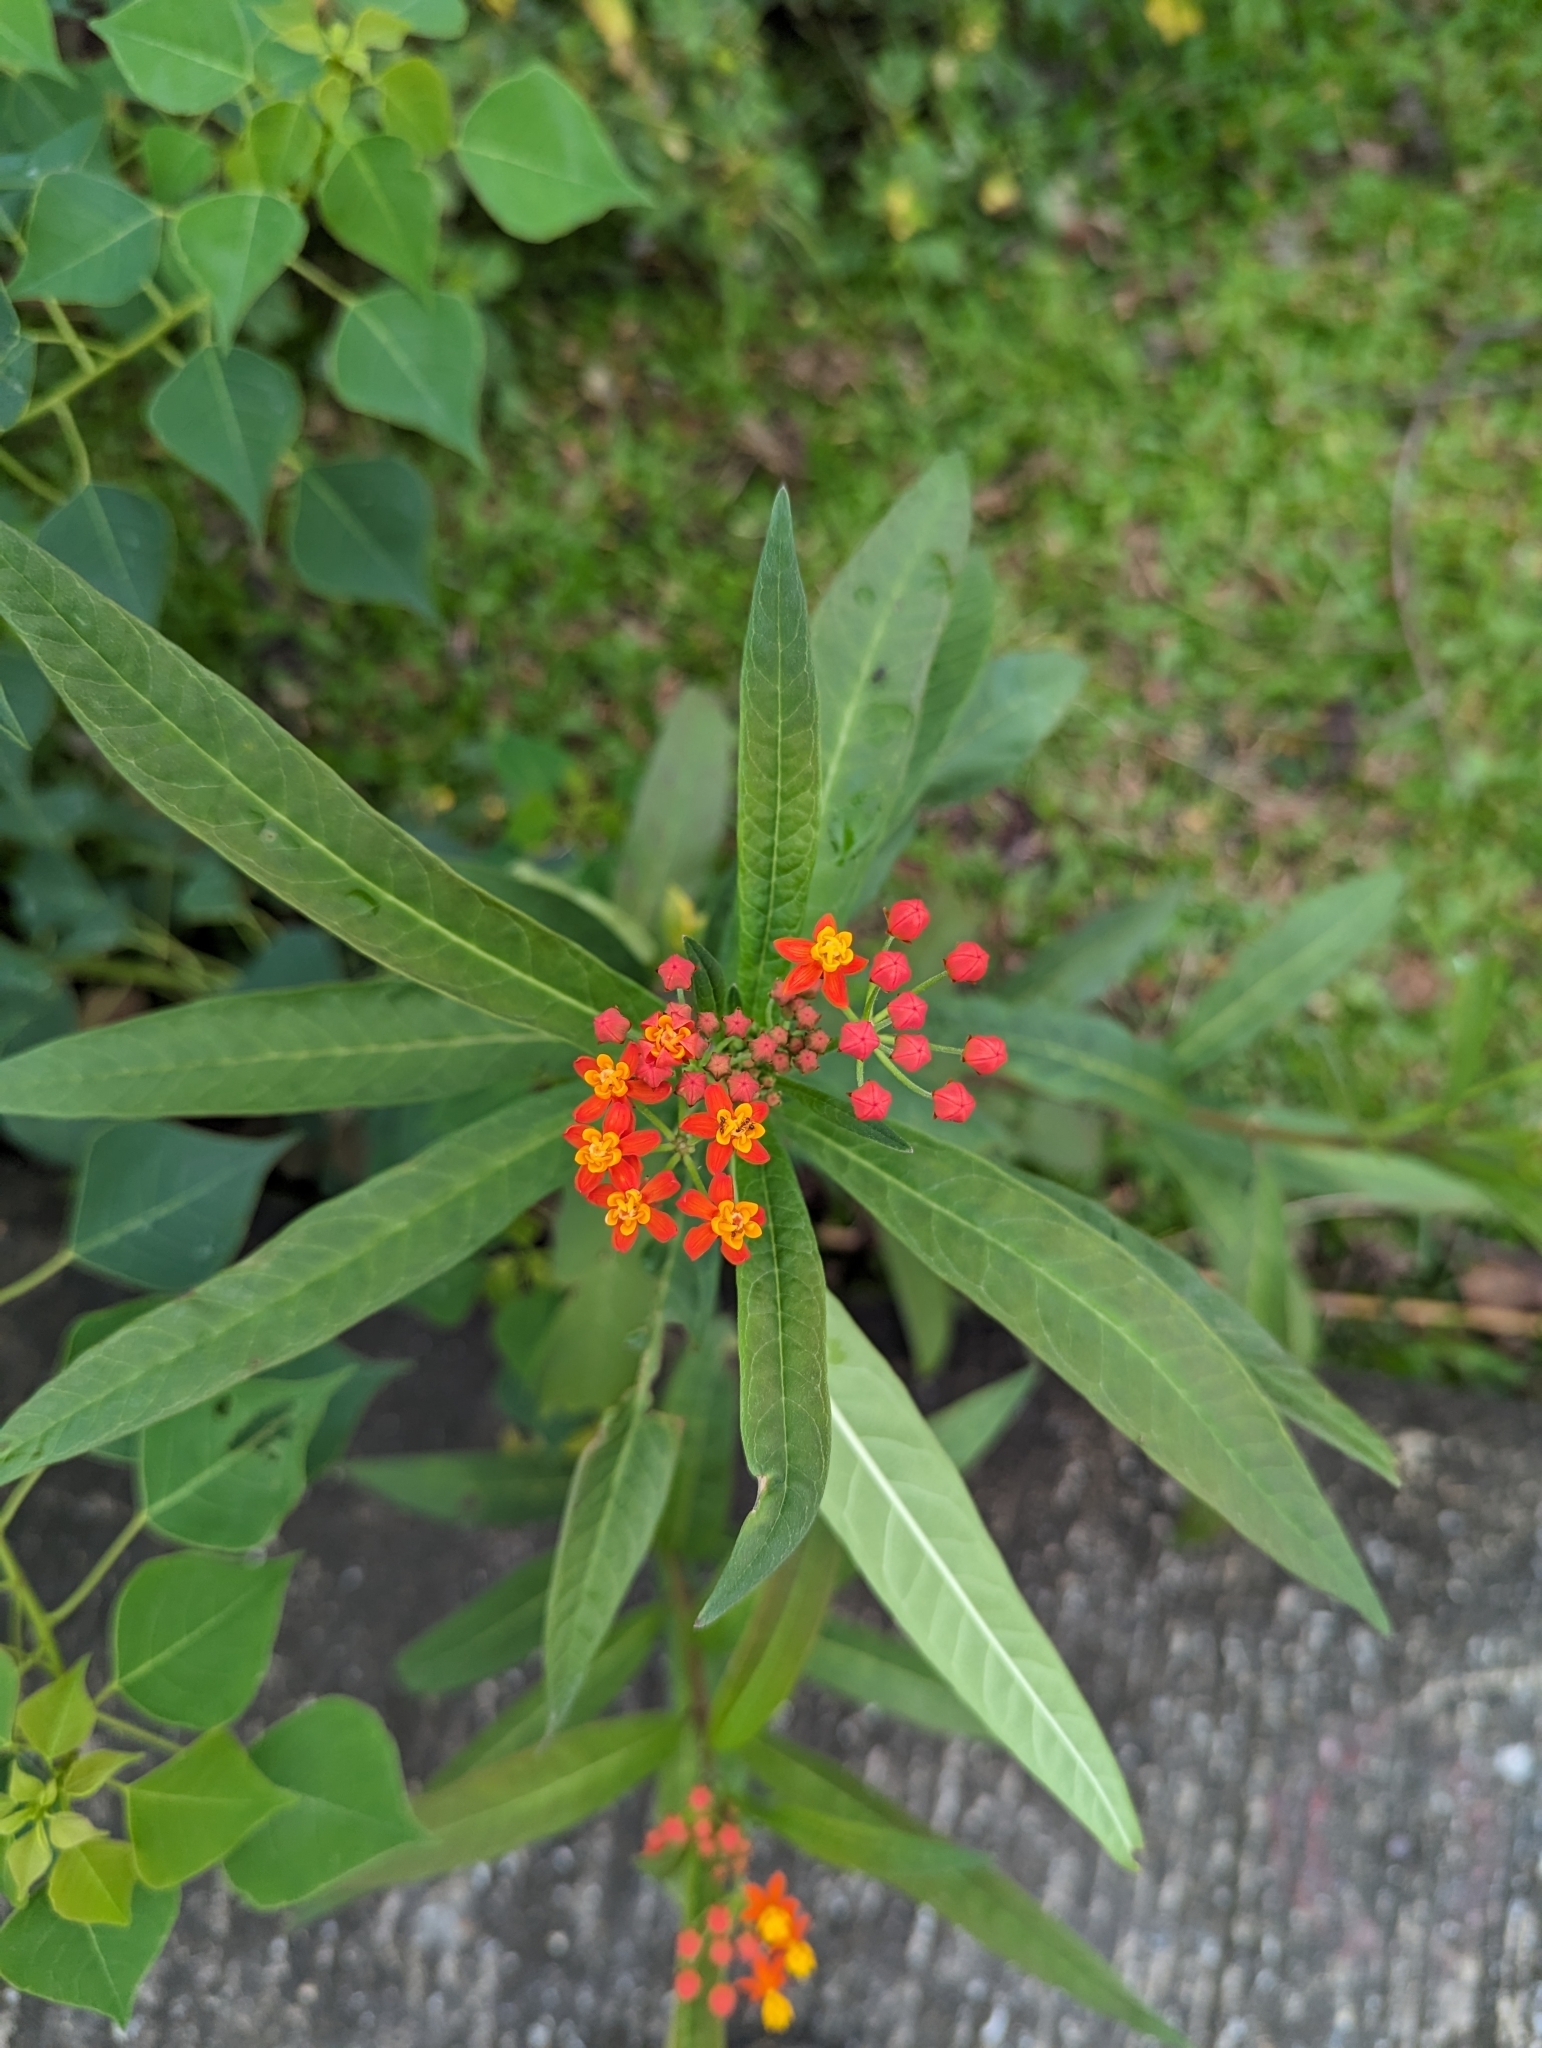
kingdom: Plantae
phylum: Tracheophyta
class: Magnoliopsida
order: Gentianales
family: Apocynaceae
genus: Asclepias
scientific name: Asclepias curassavica
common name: Bloodflower
